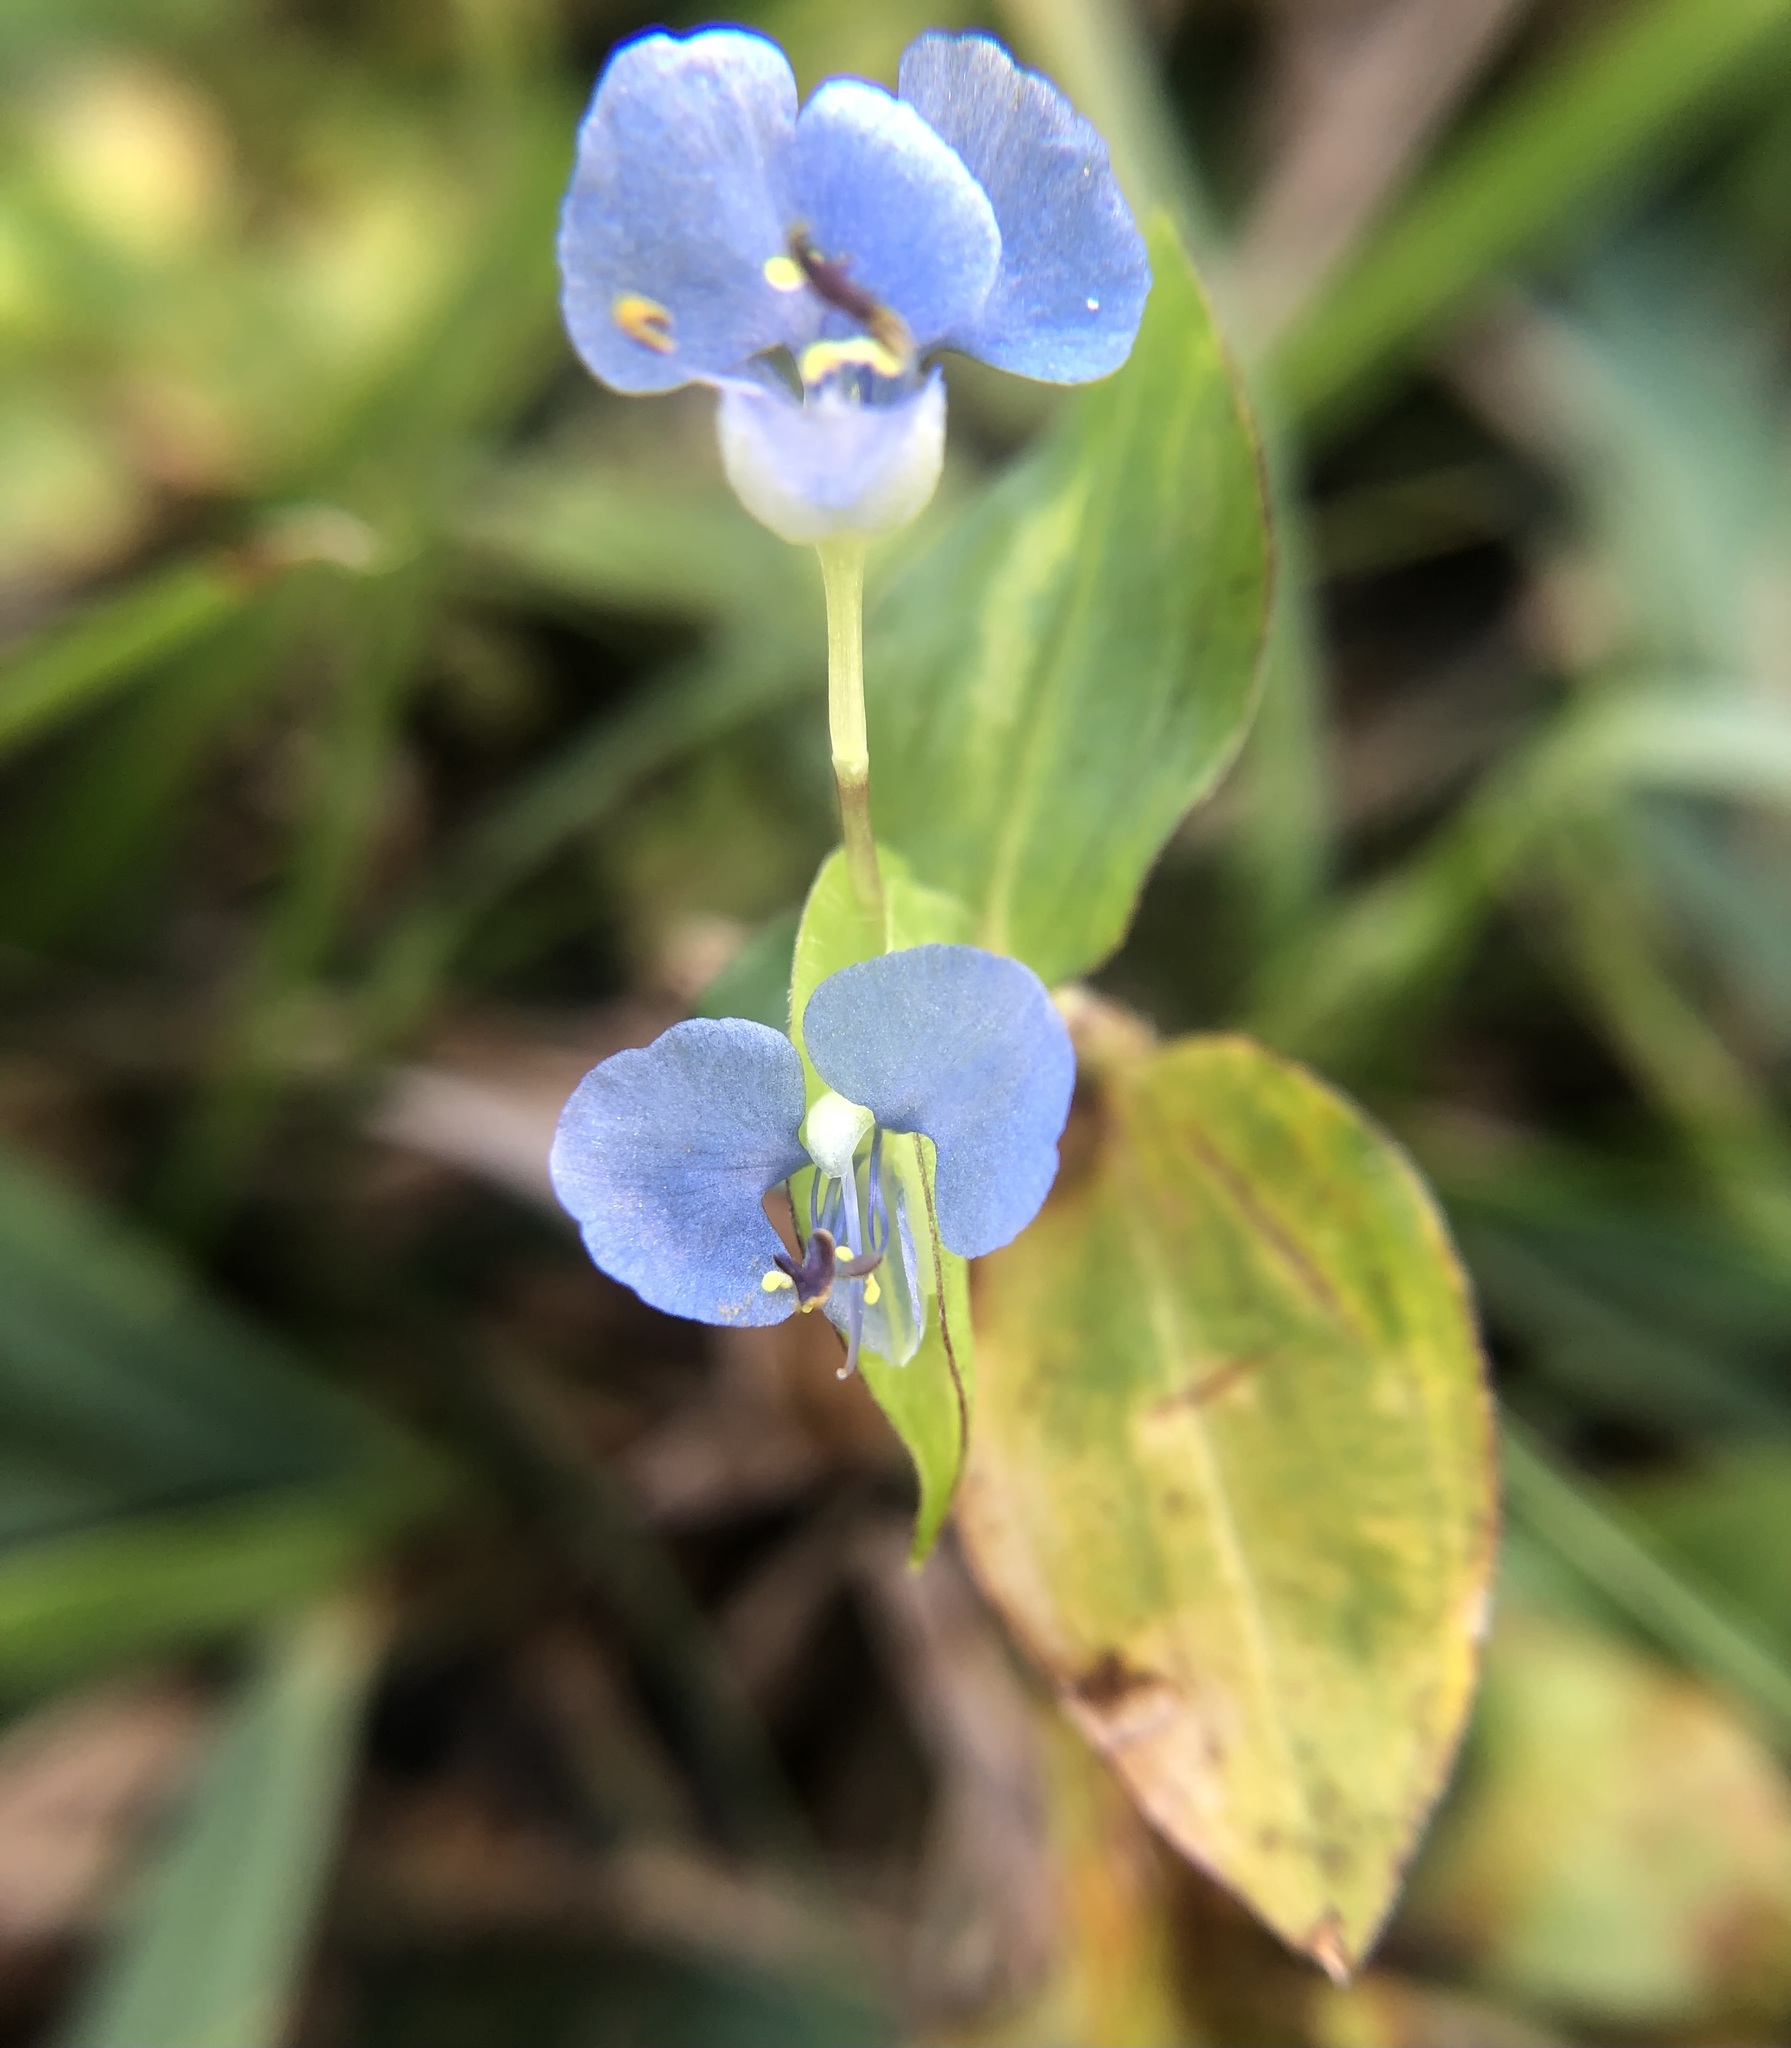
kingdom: Plantae
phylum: Tracheophyta
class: Liliopsida
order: Commelinales
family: Commelinaceae
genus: Commelina
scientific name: Commelina diffusa
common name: Climbing dayflower
